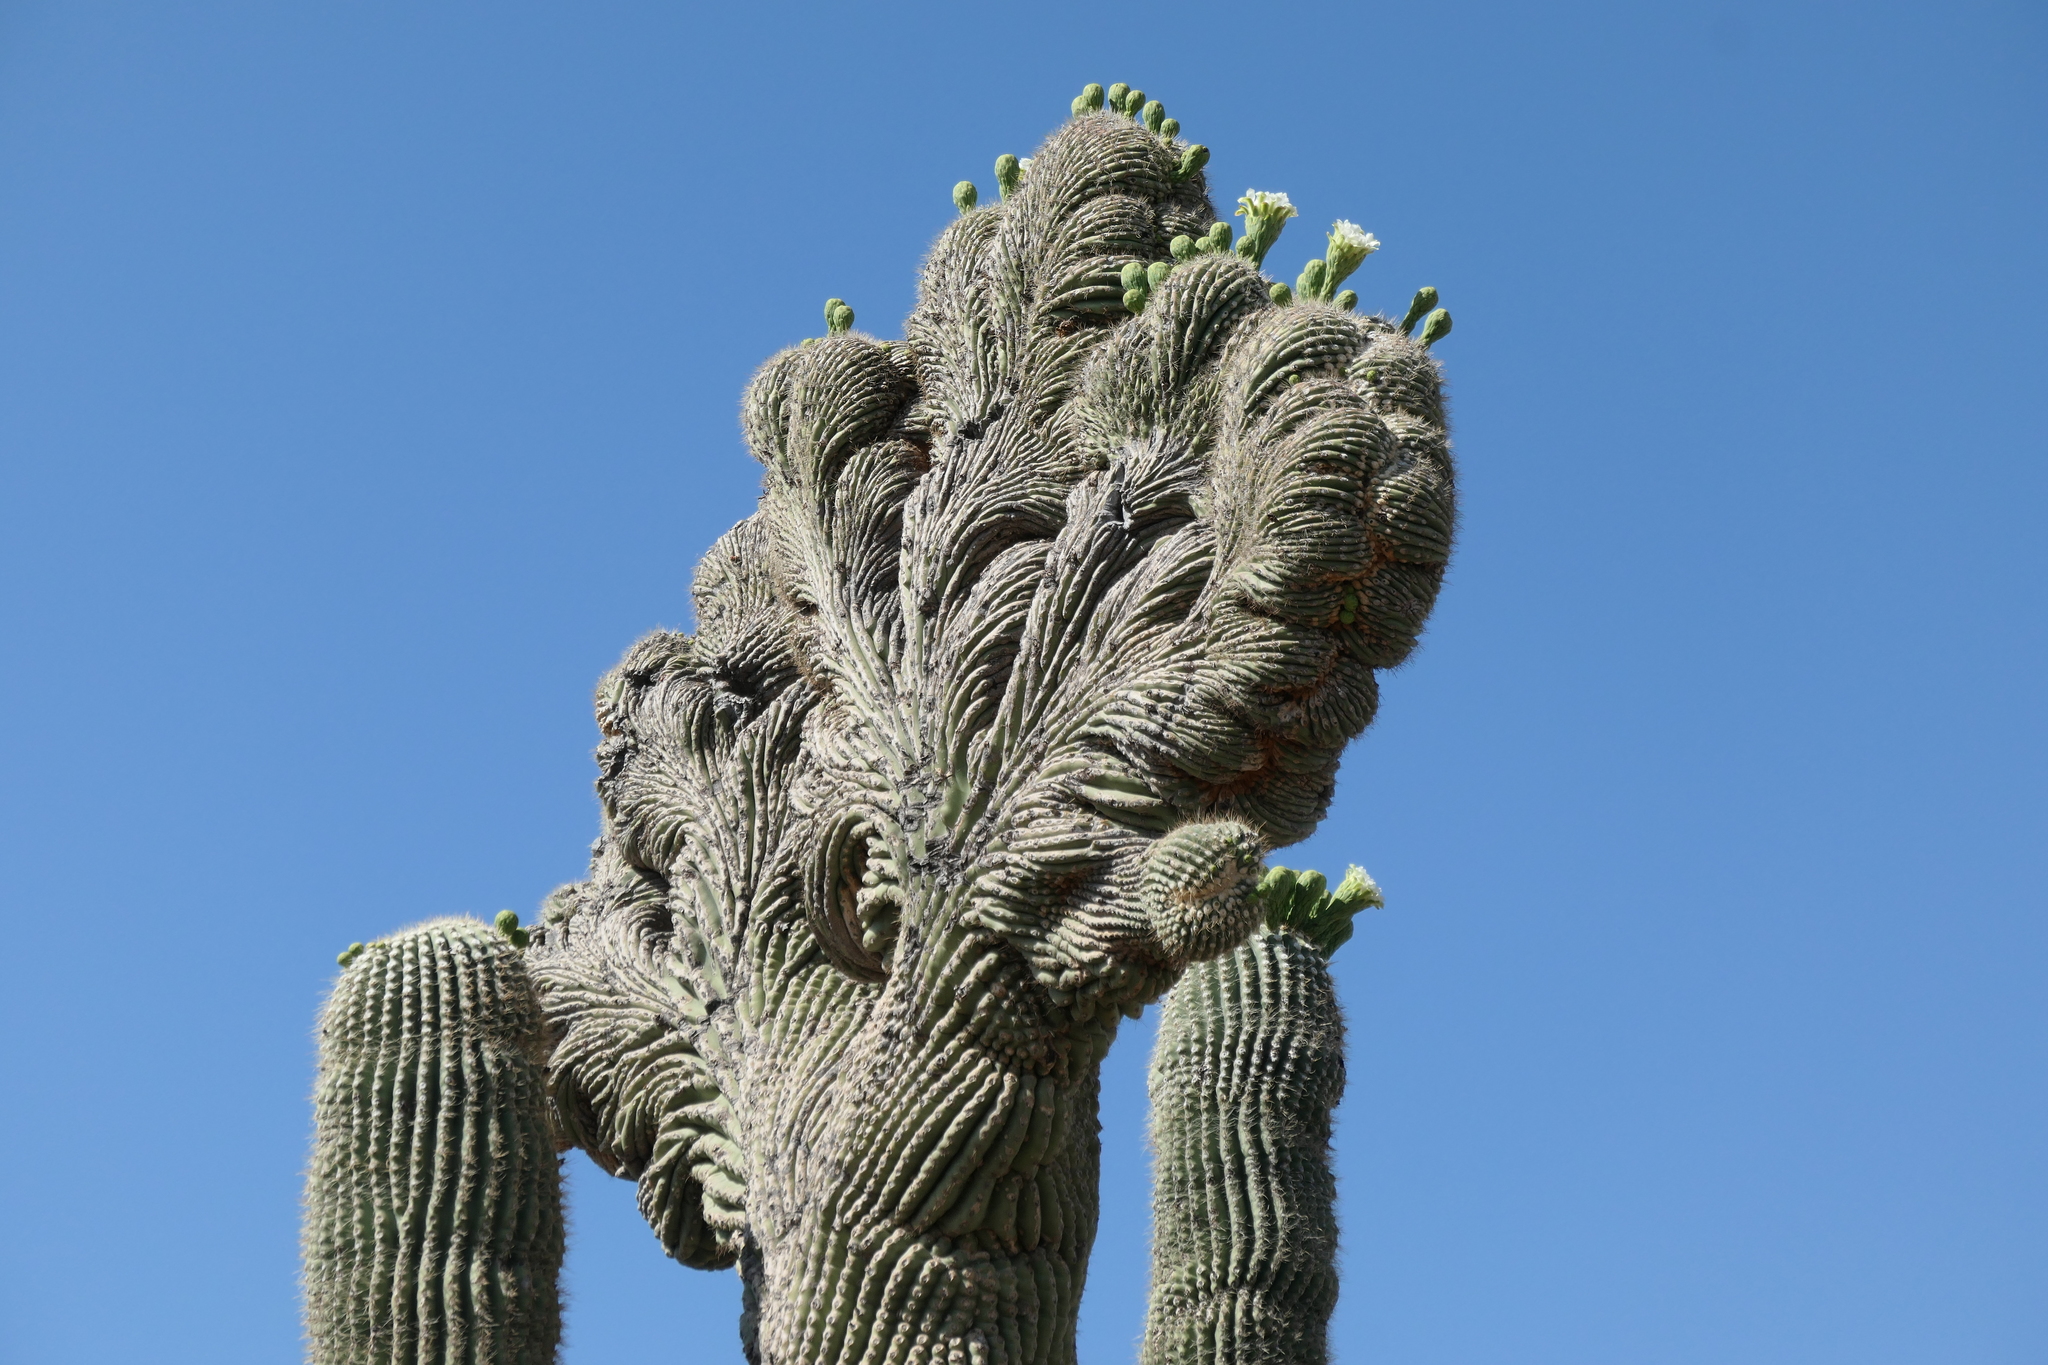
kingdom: Plantae
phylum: Tracheophyta
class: Magnoliopsida
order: Caryophyllales
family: Cactaceae
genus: Carnegiea
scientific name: Carnegiea gigantea
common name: Saguaro
